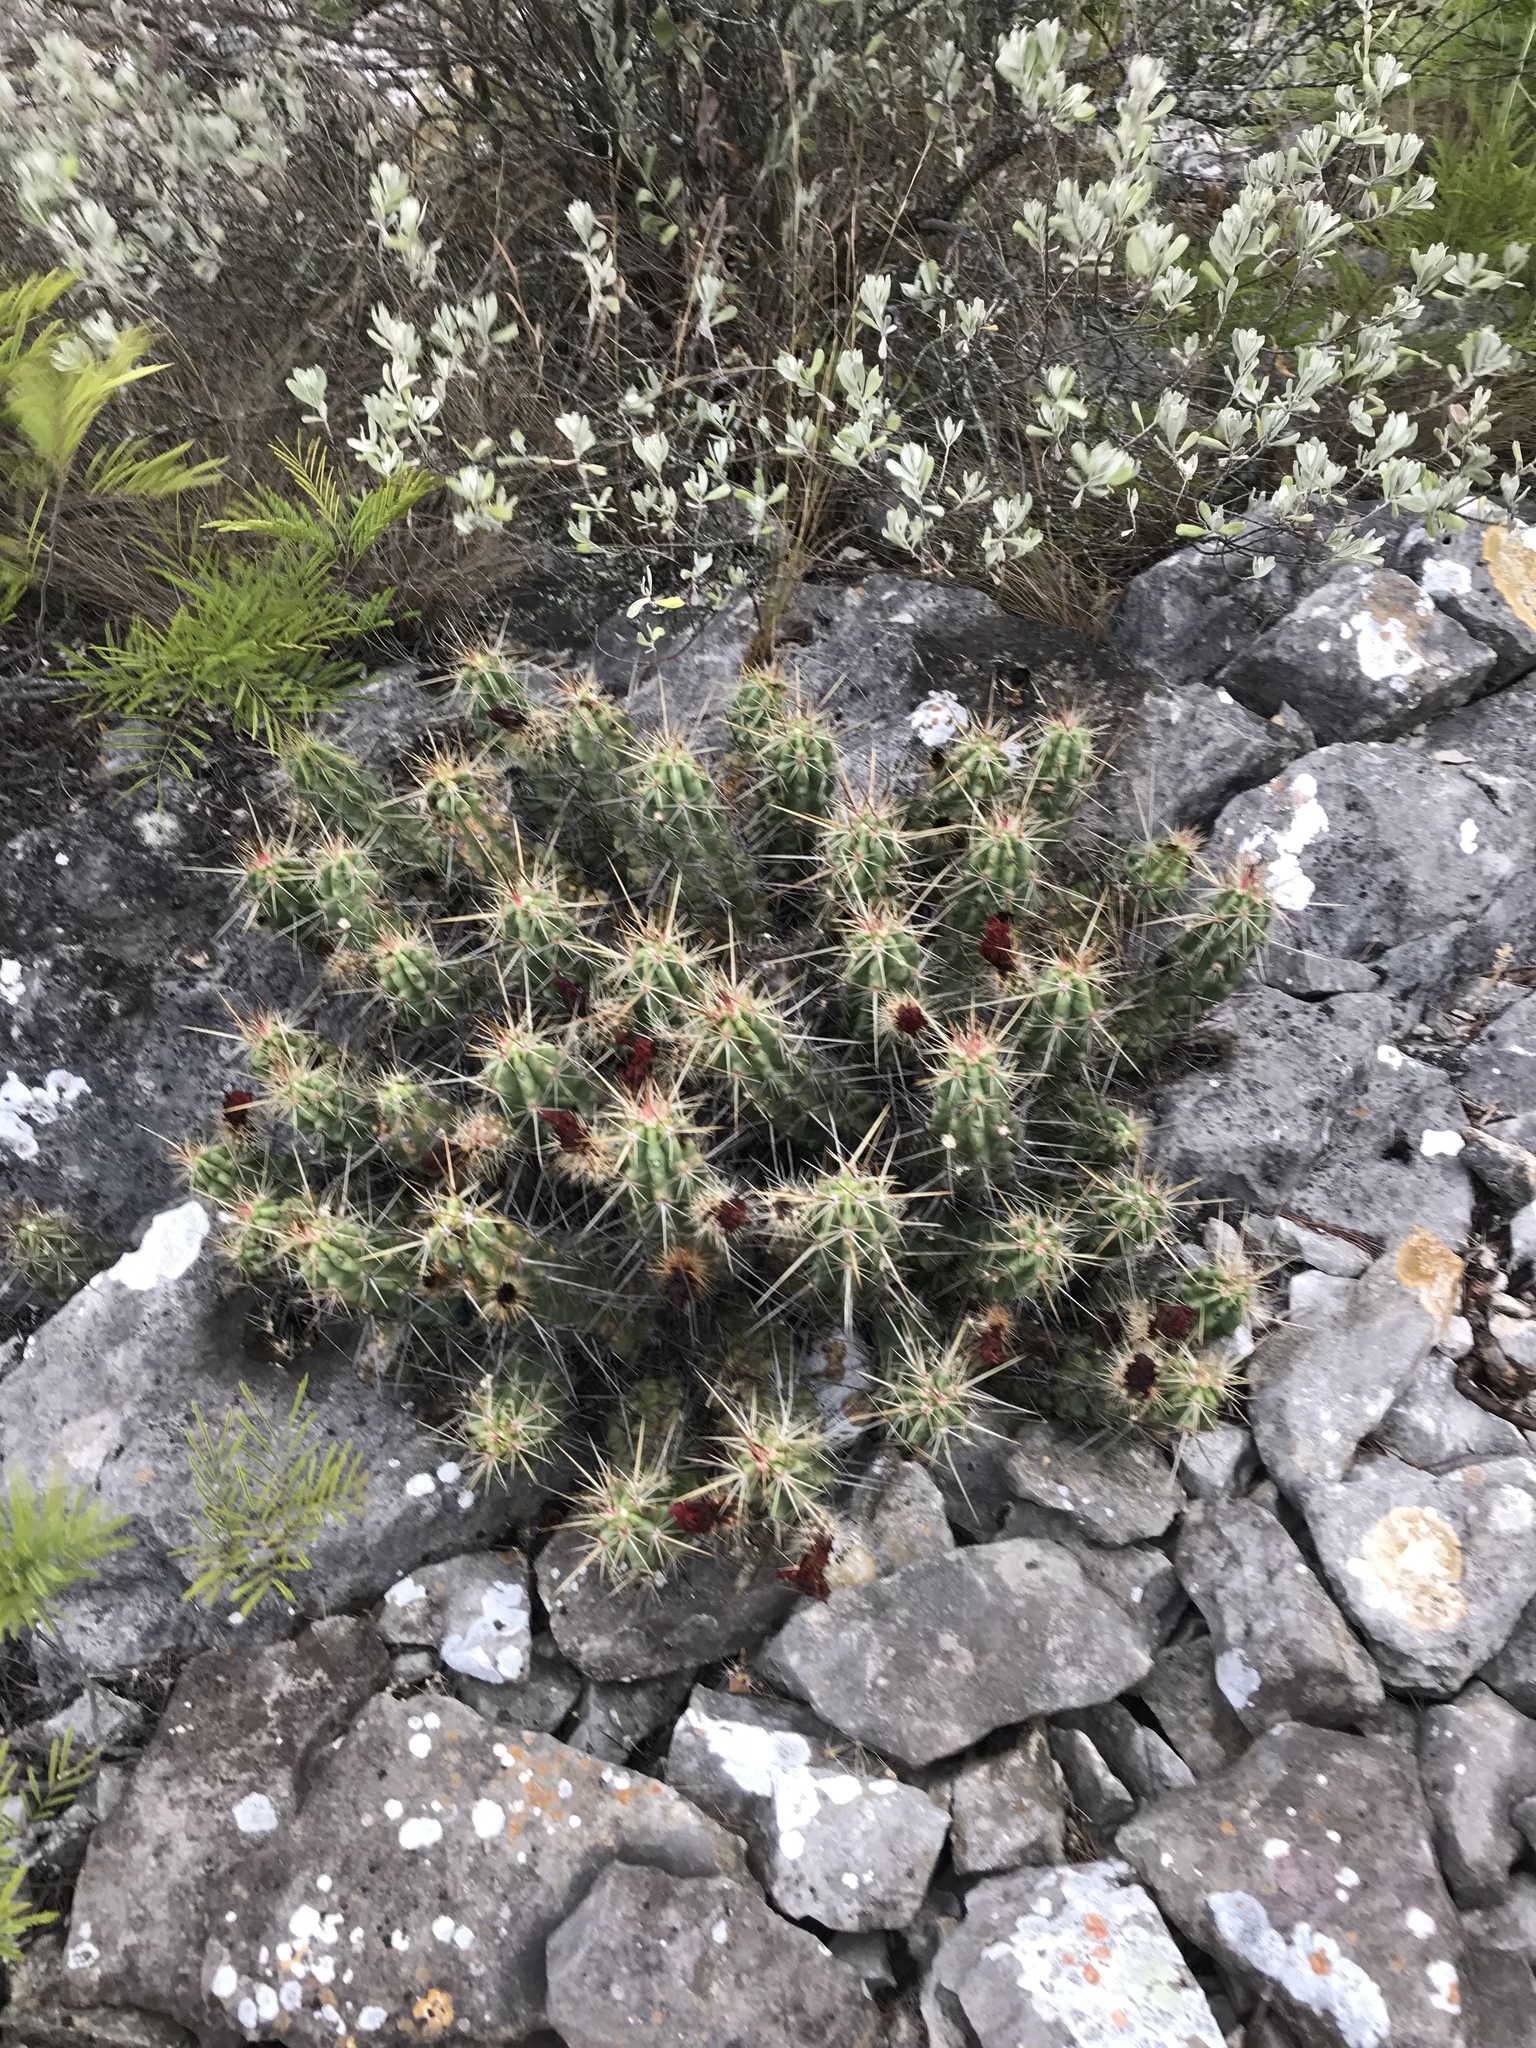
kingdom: Plantae
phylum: Tracheophyta
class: Magnoliopsida
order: Caryophyllales
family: Cactaceae
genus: Echinocereus
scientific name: Echinocereus enneacanthus
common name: Pitaya
